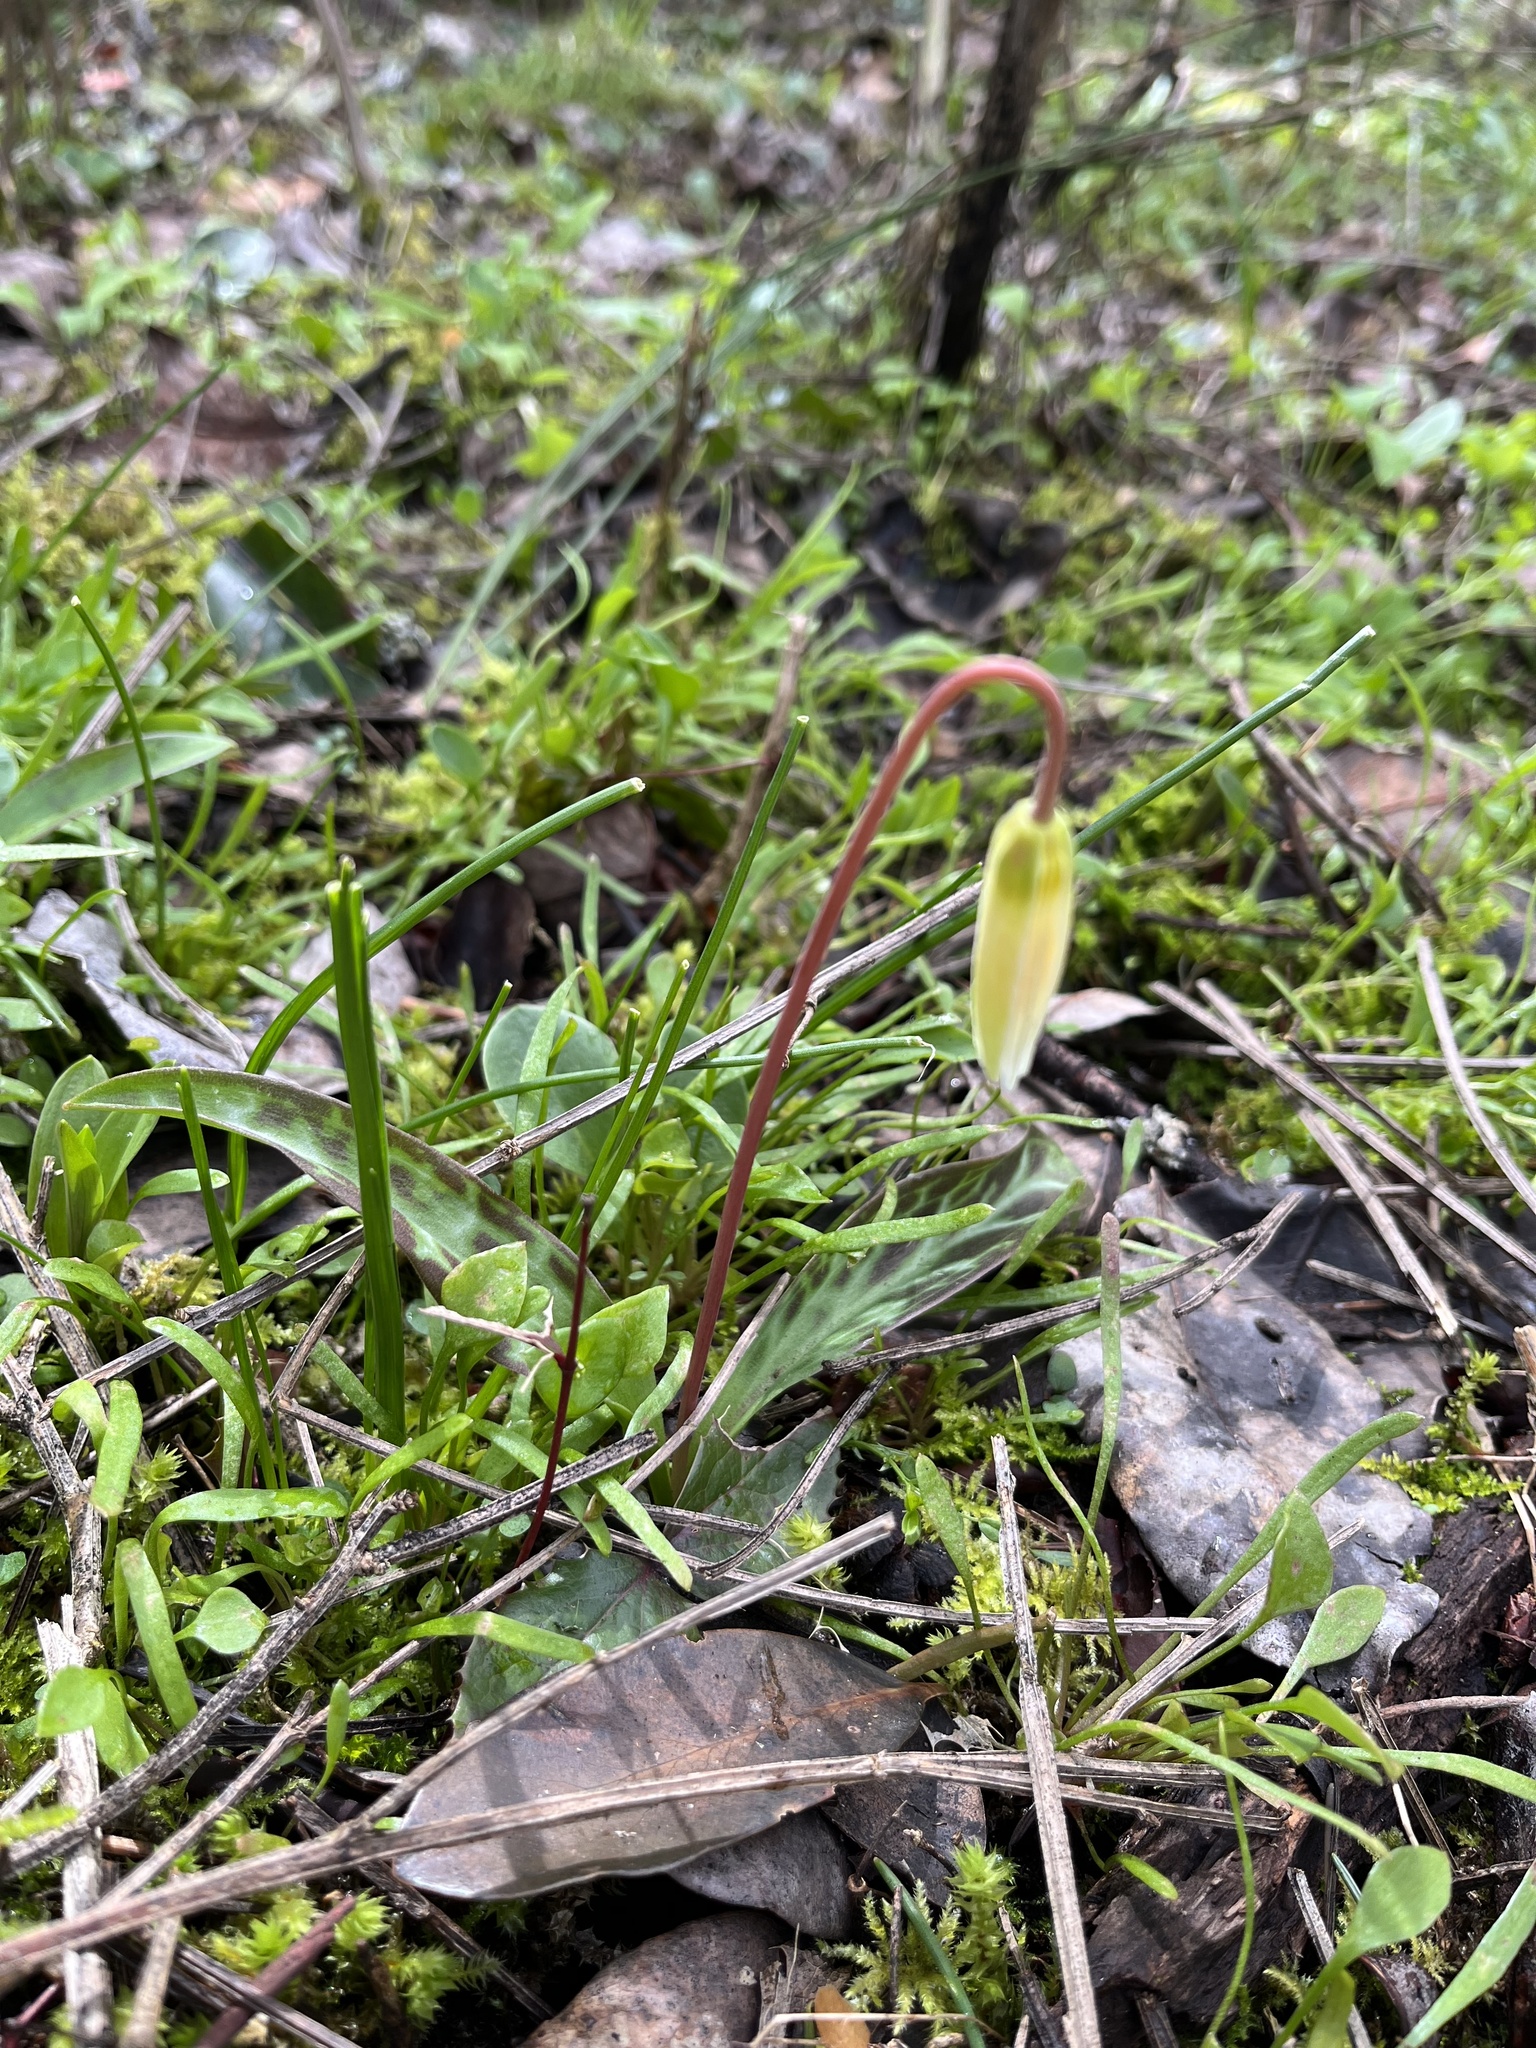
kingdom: Plantae
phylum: Tracheophyta
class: Liliopsida
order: Liliales
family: Liliaceae
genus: Erythronium
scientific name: Erythronium oregonum
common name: Giant adder's-tongue
